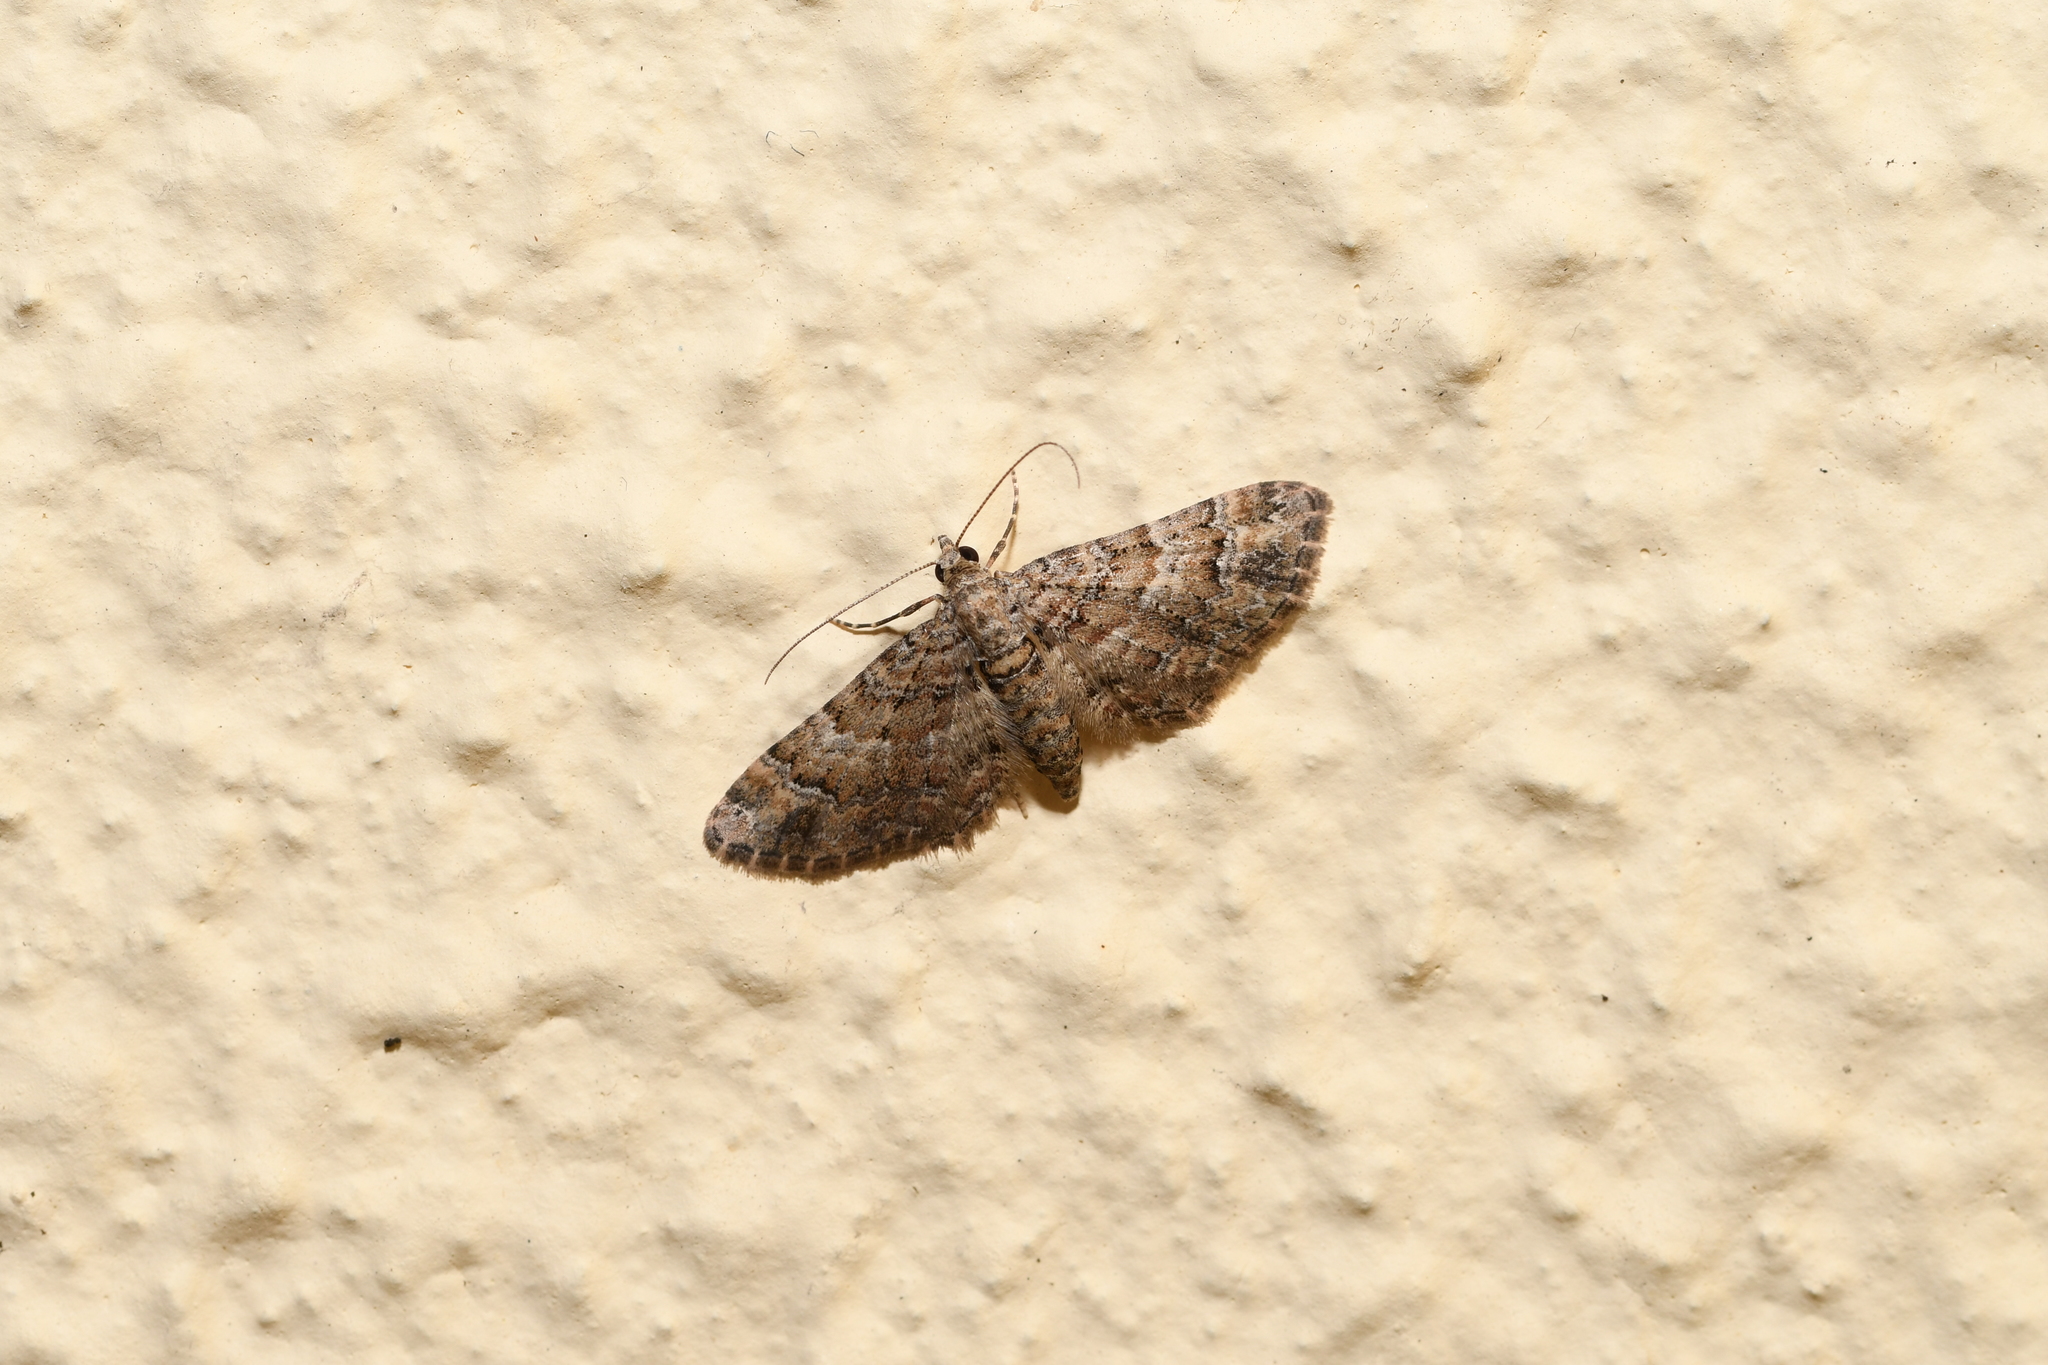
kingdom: Animalia
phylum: Arthropoda
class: Insecta
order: Lepidoptera
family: Geometridae
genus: Gymnoscelis
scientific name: Gymnoscelis rufifasciata
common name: Double-striped pug
